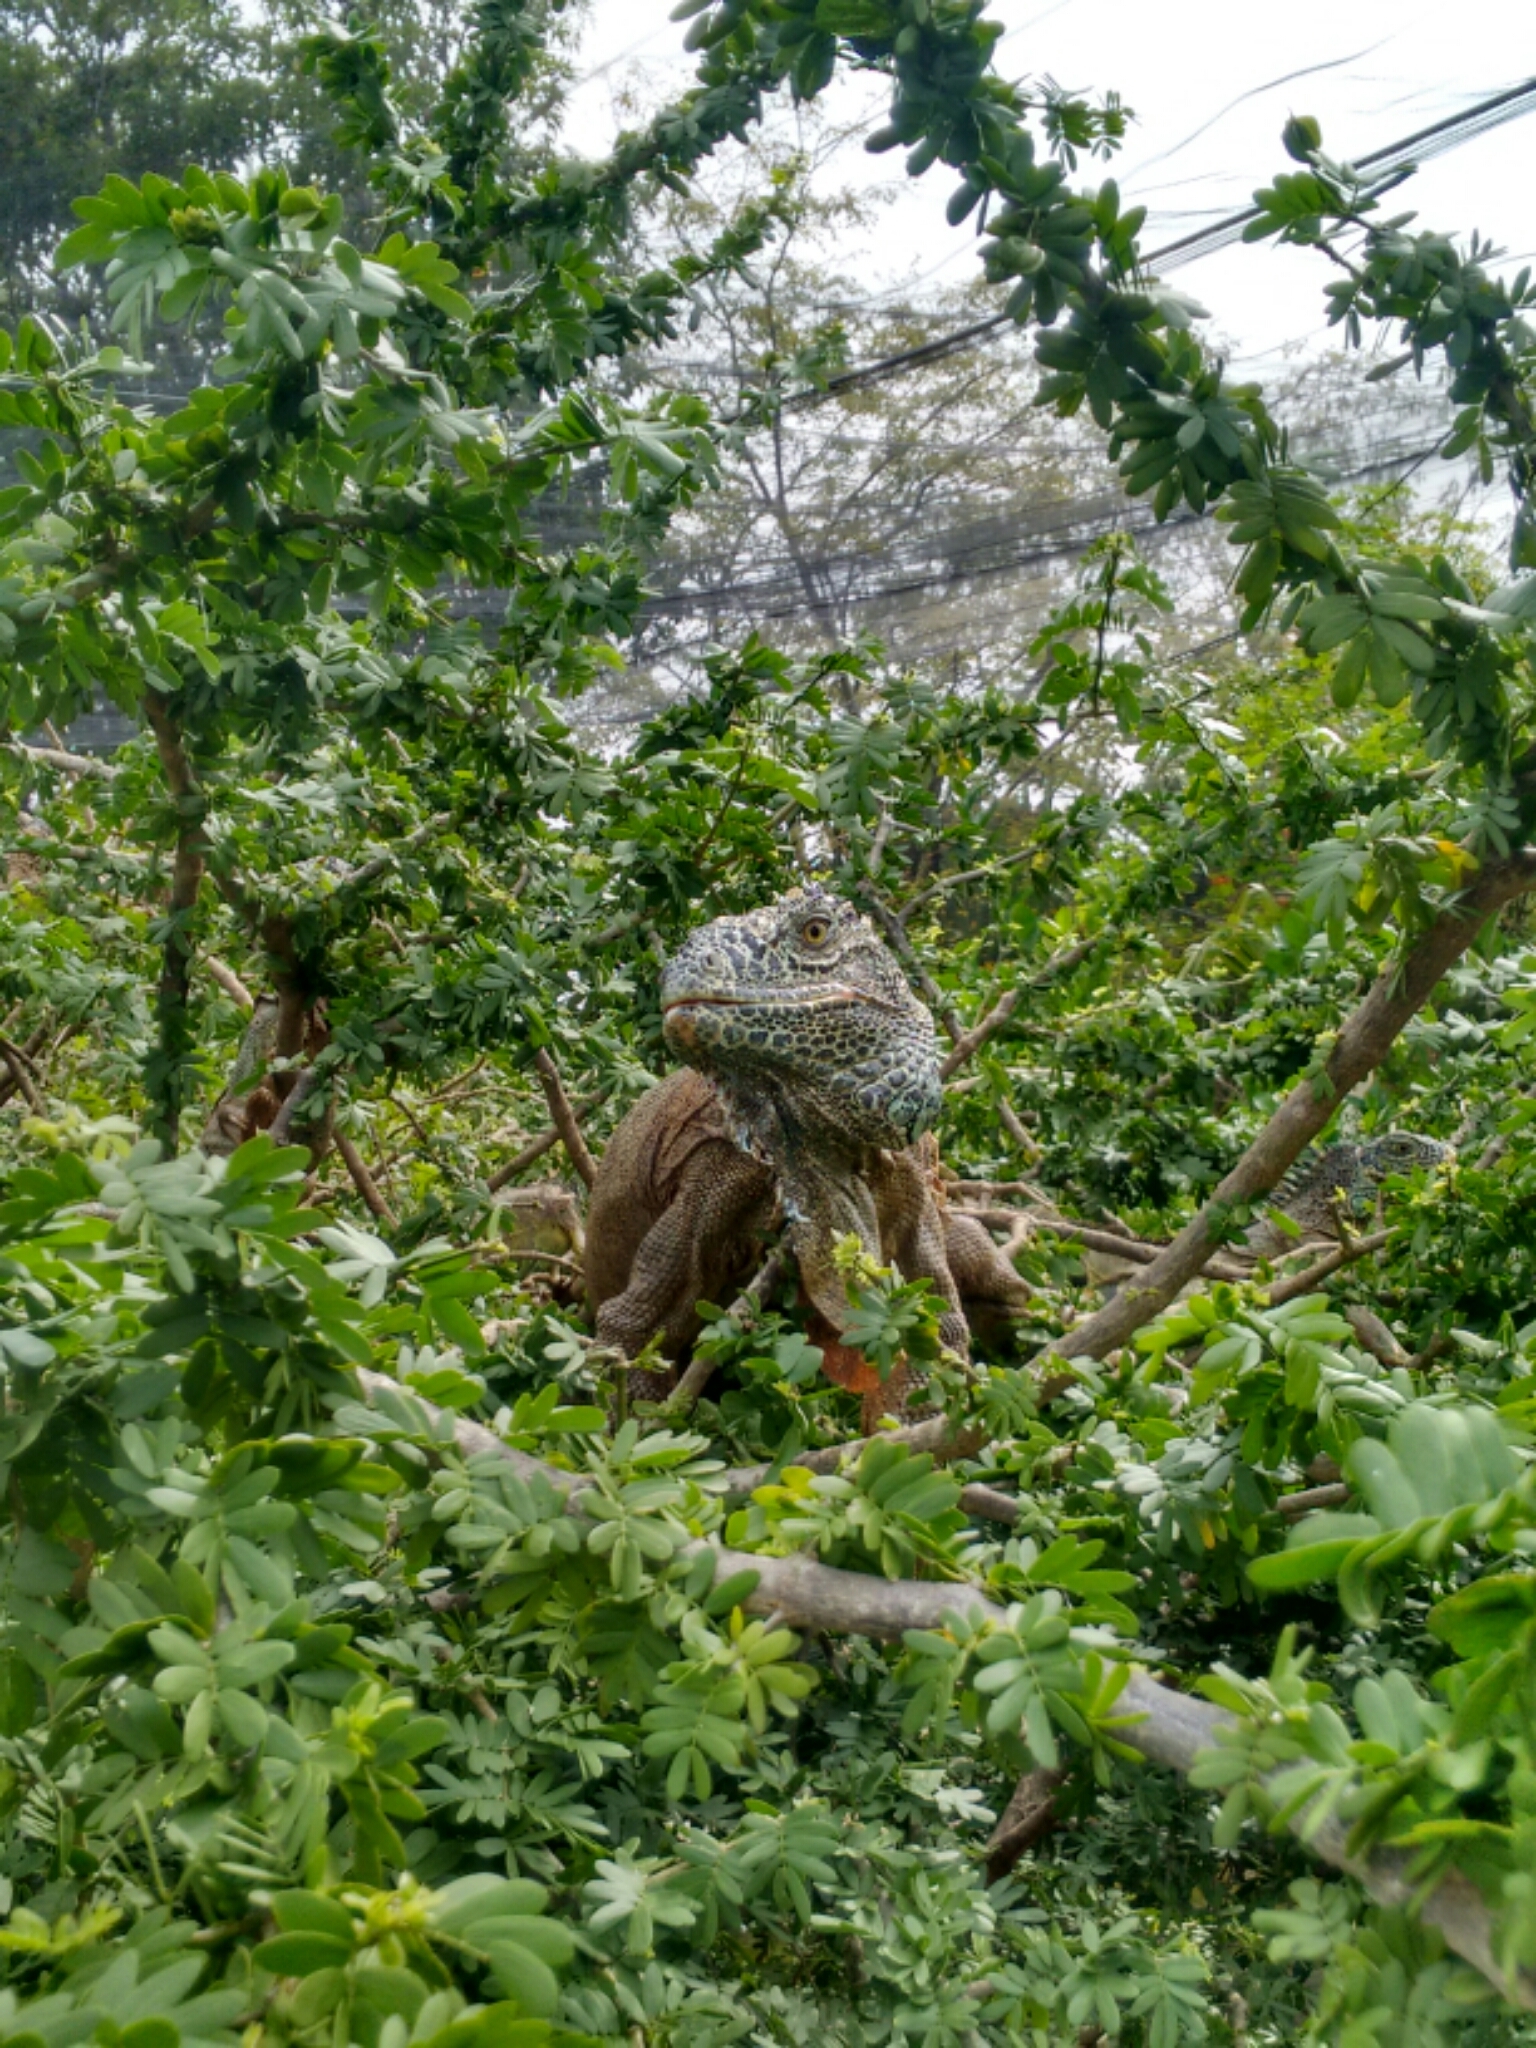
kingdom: Animalia
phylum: Chordata
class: Squamata
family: Iguanidae
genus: Iguana
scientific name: Iguana iguana
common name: Green iguana
